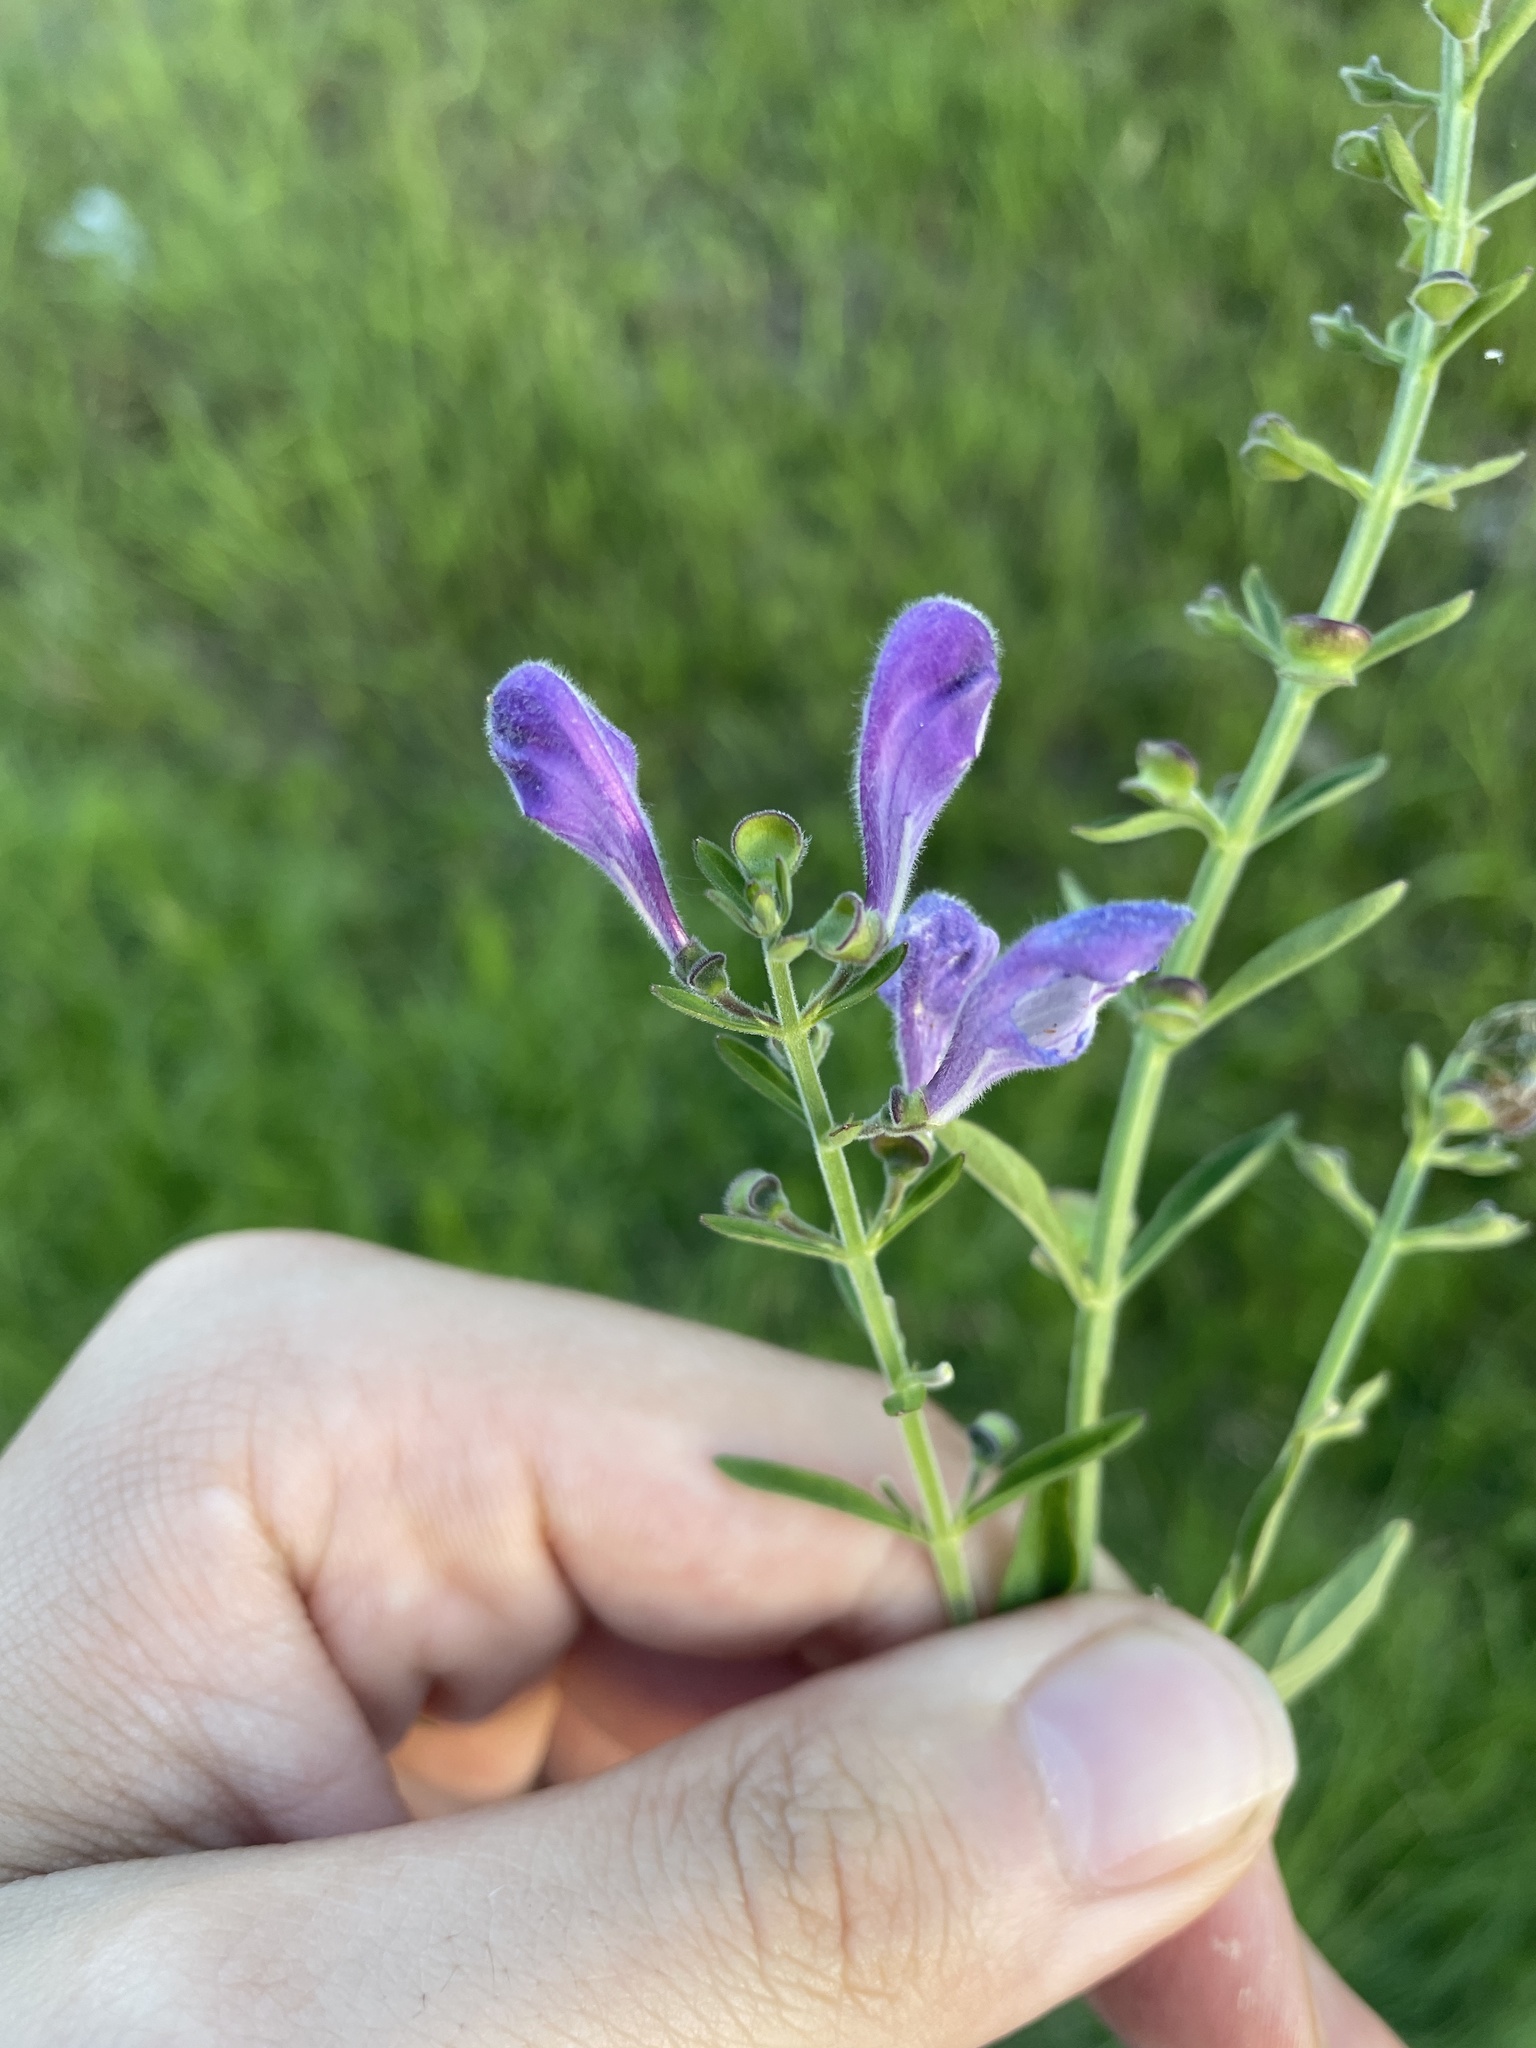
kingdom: Plantae
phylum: Tracheophyta
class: Magnoliopsida
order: Lamiales
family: Lamiaceae
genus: Scutellaria
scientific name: Scutellaria integrifolia
